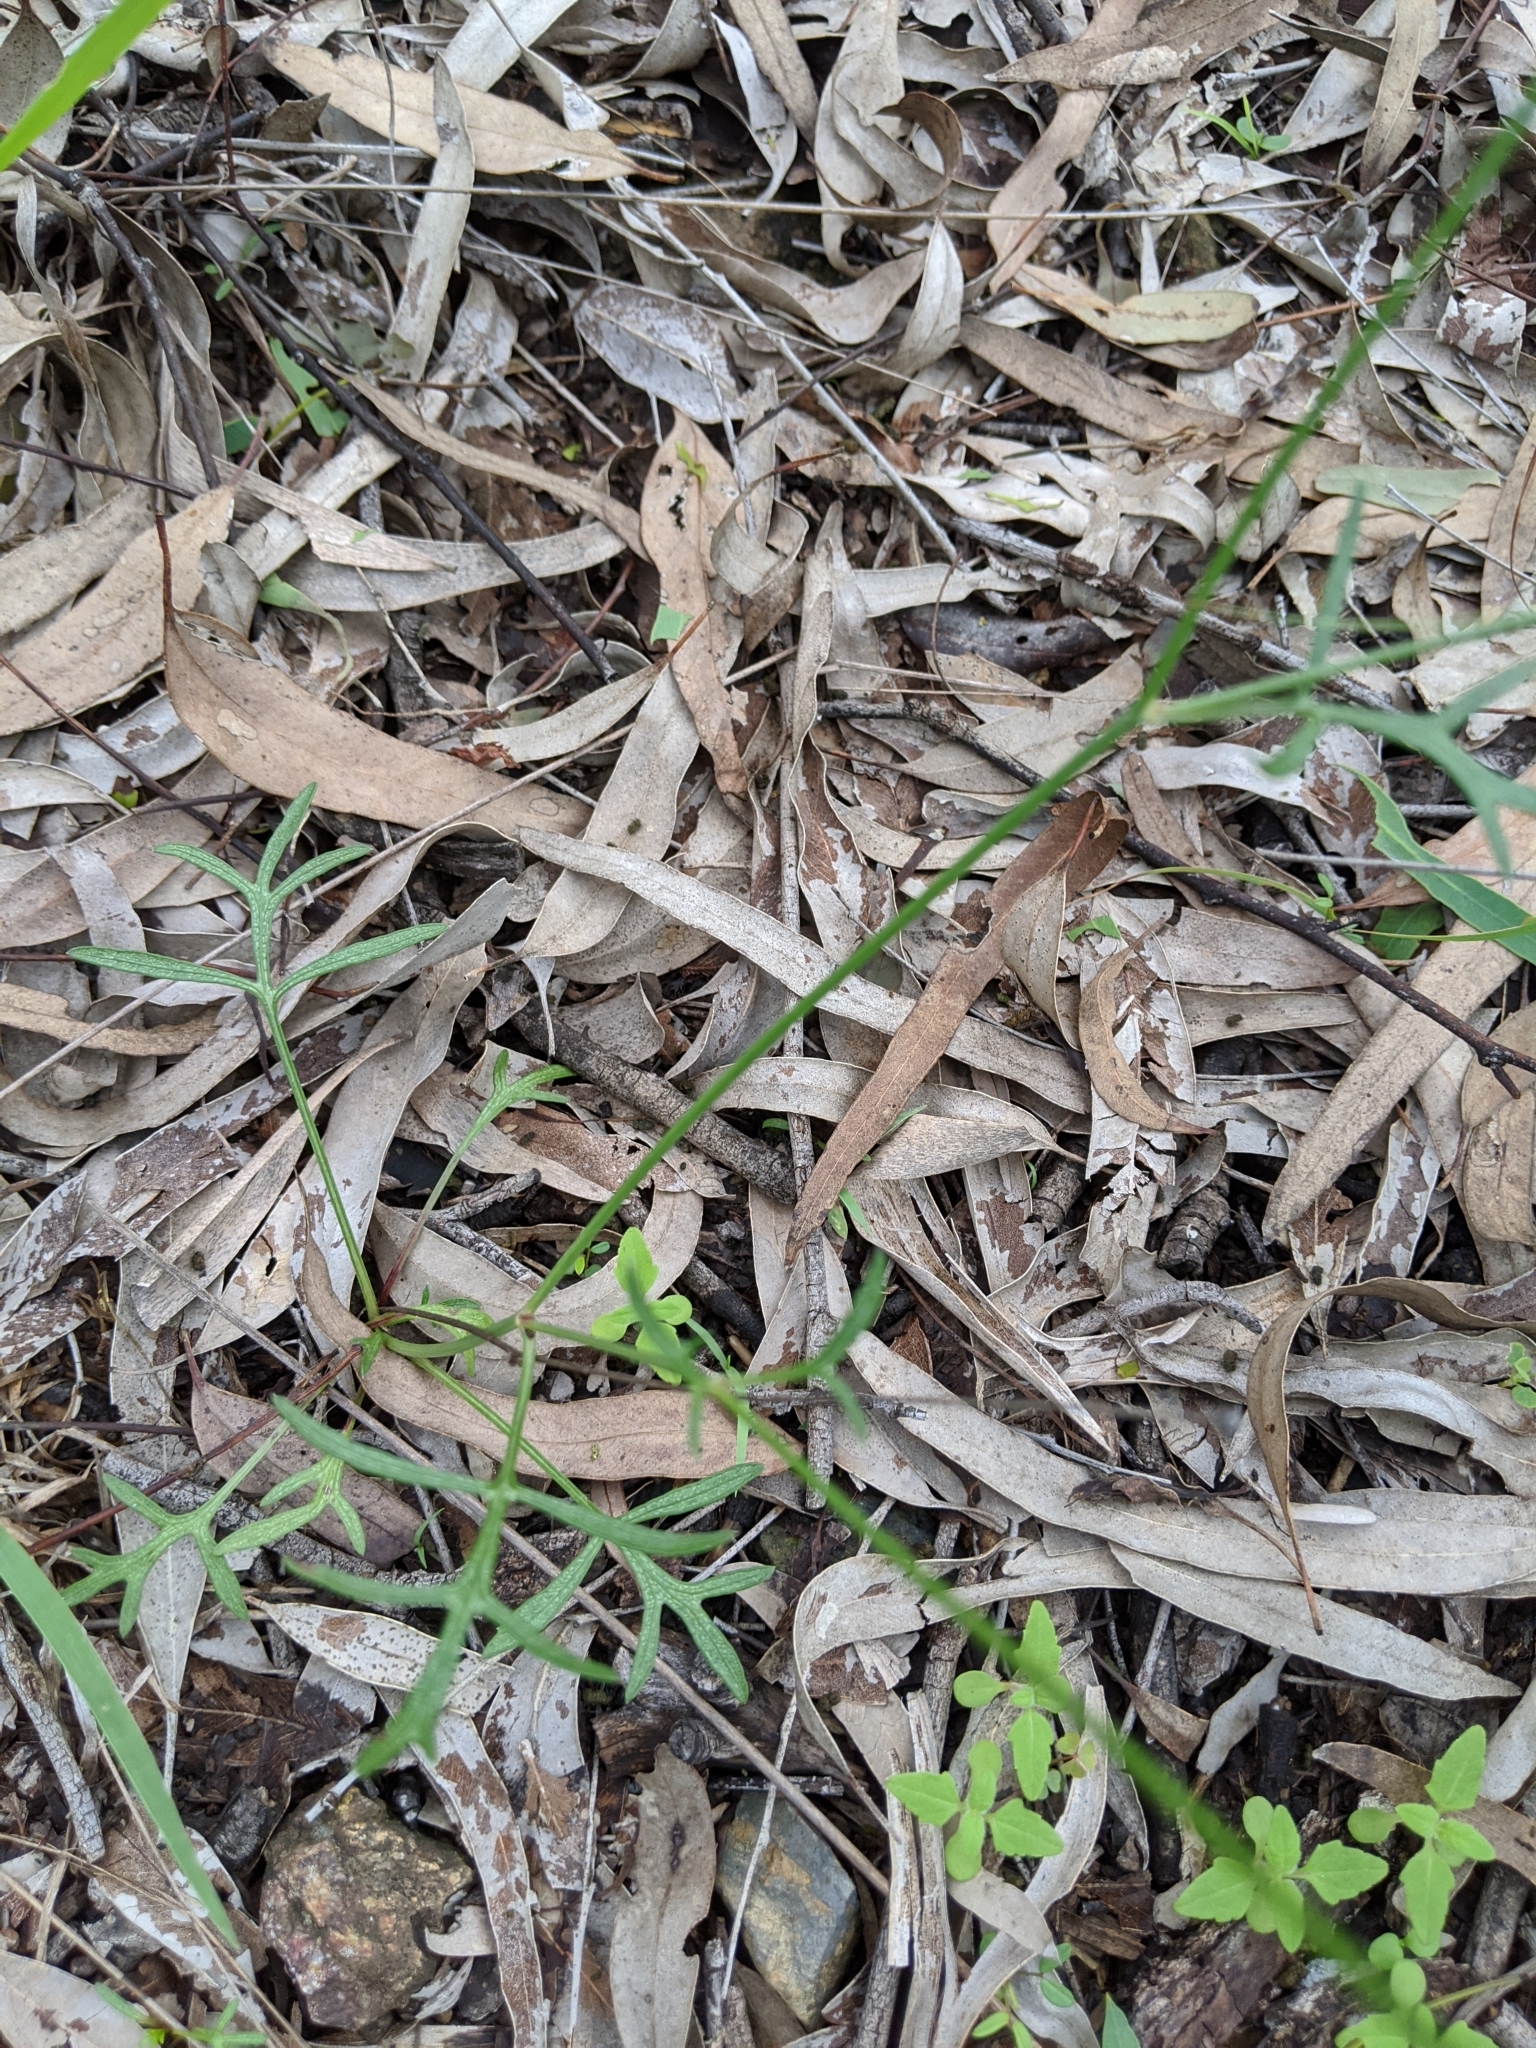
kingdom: Plantae
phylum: Tracheophyta
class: Magnoliopsida
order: Asterales
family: Asteraceae
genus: Glossocardia
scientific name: Glossocardia bidens
